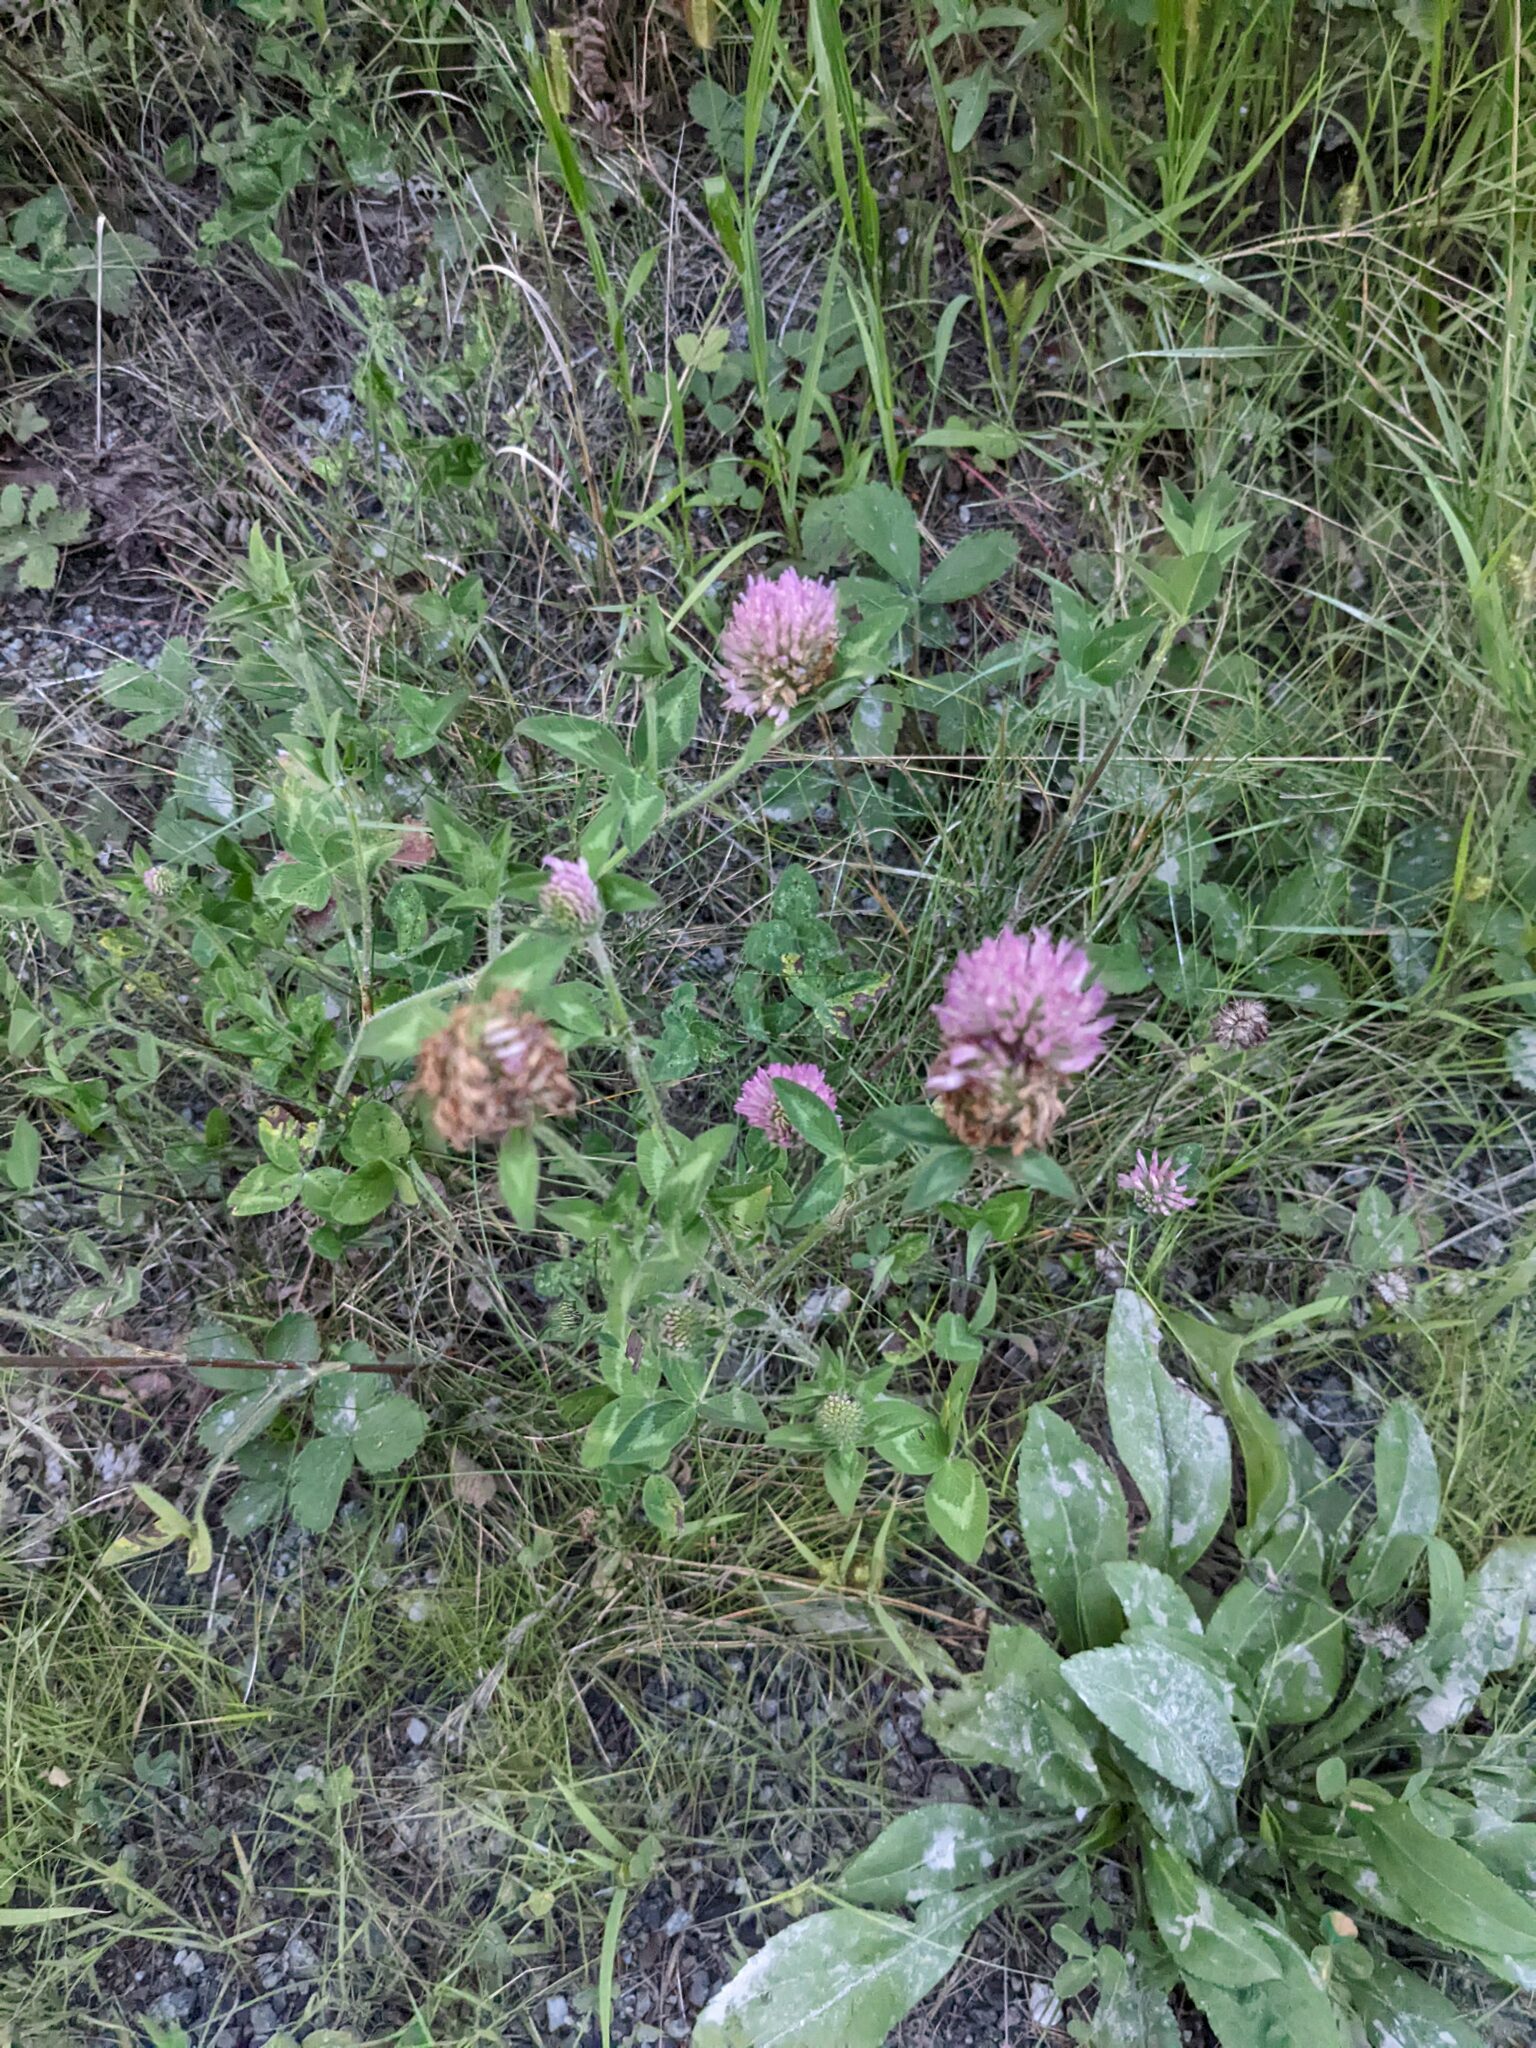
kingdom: Plantae
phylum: Tracheophyta
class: Magnoliopsida
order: Fabales
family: Fabaceae
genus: Trifolium
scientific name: Trifolium pratense
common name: Red clover
